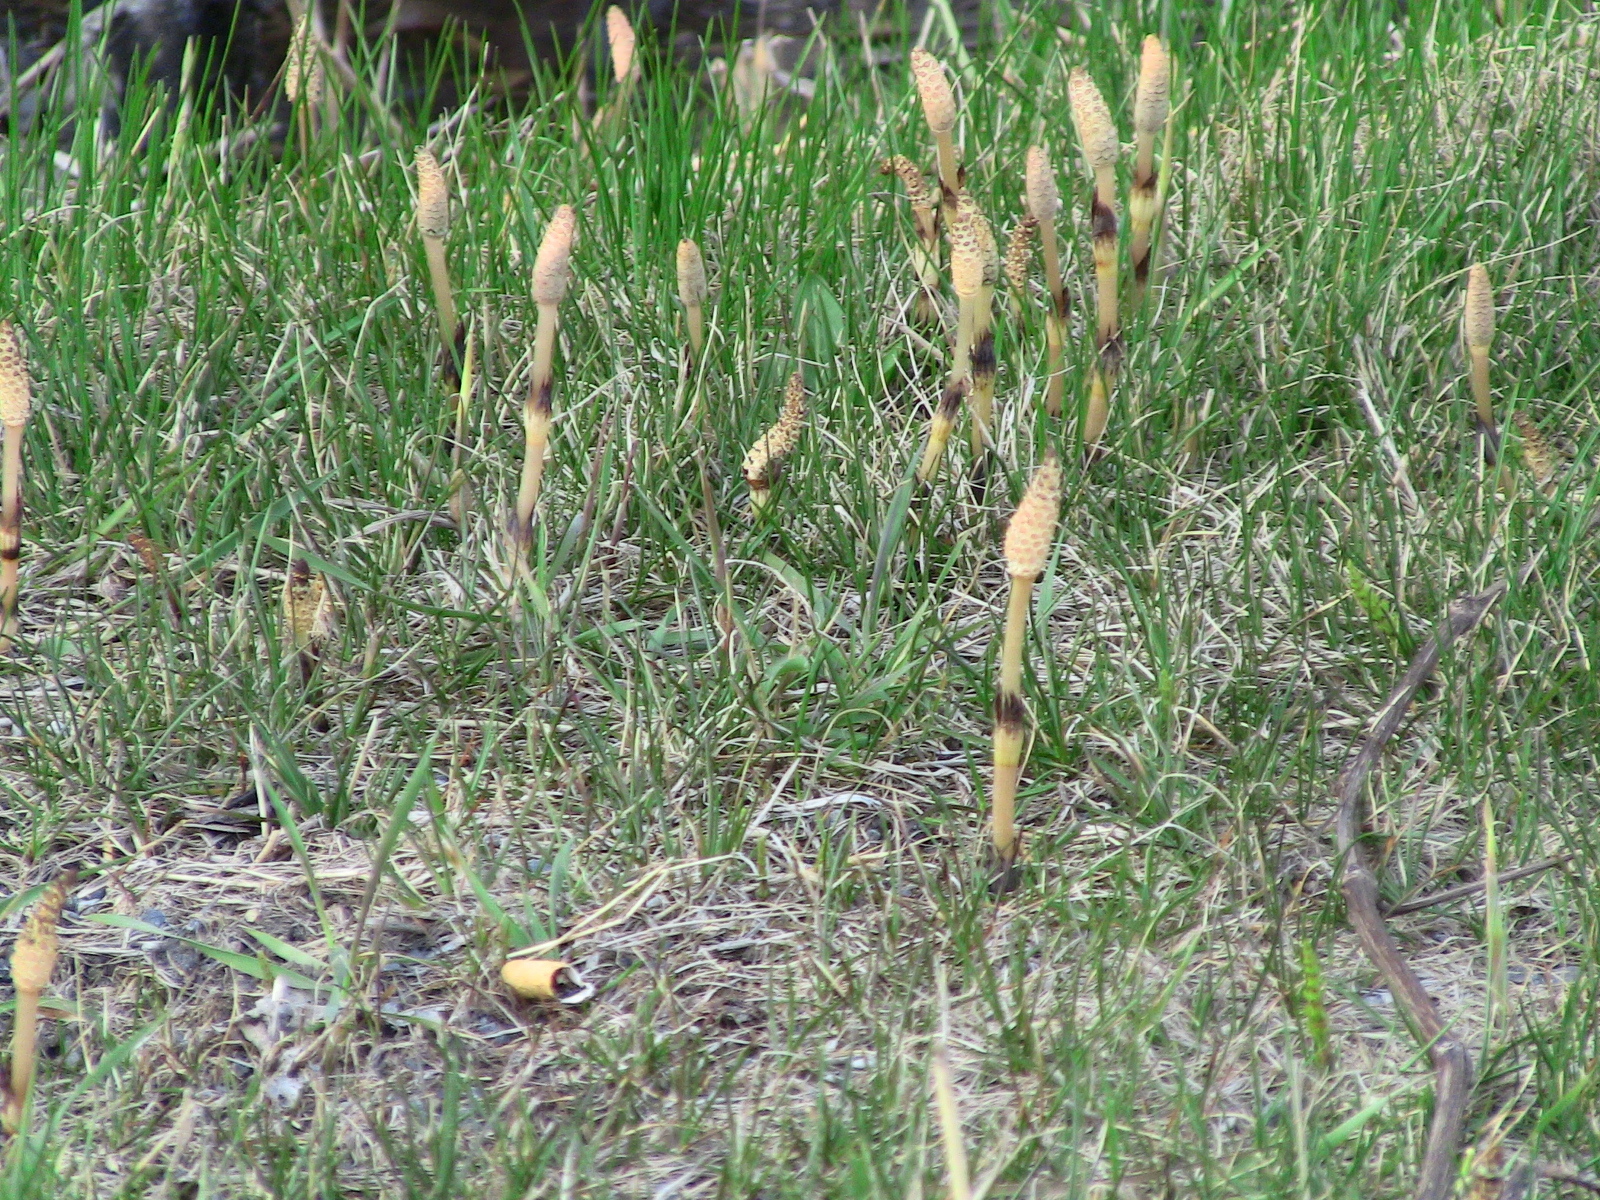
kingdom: Plantae
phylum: Tracheophyta
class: Polypodiopsida
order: Equisetales
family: Equisetaceae
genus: Equisetum
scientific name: Equisetum arvense
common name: Field horsetail
